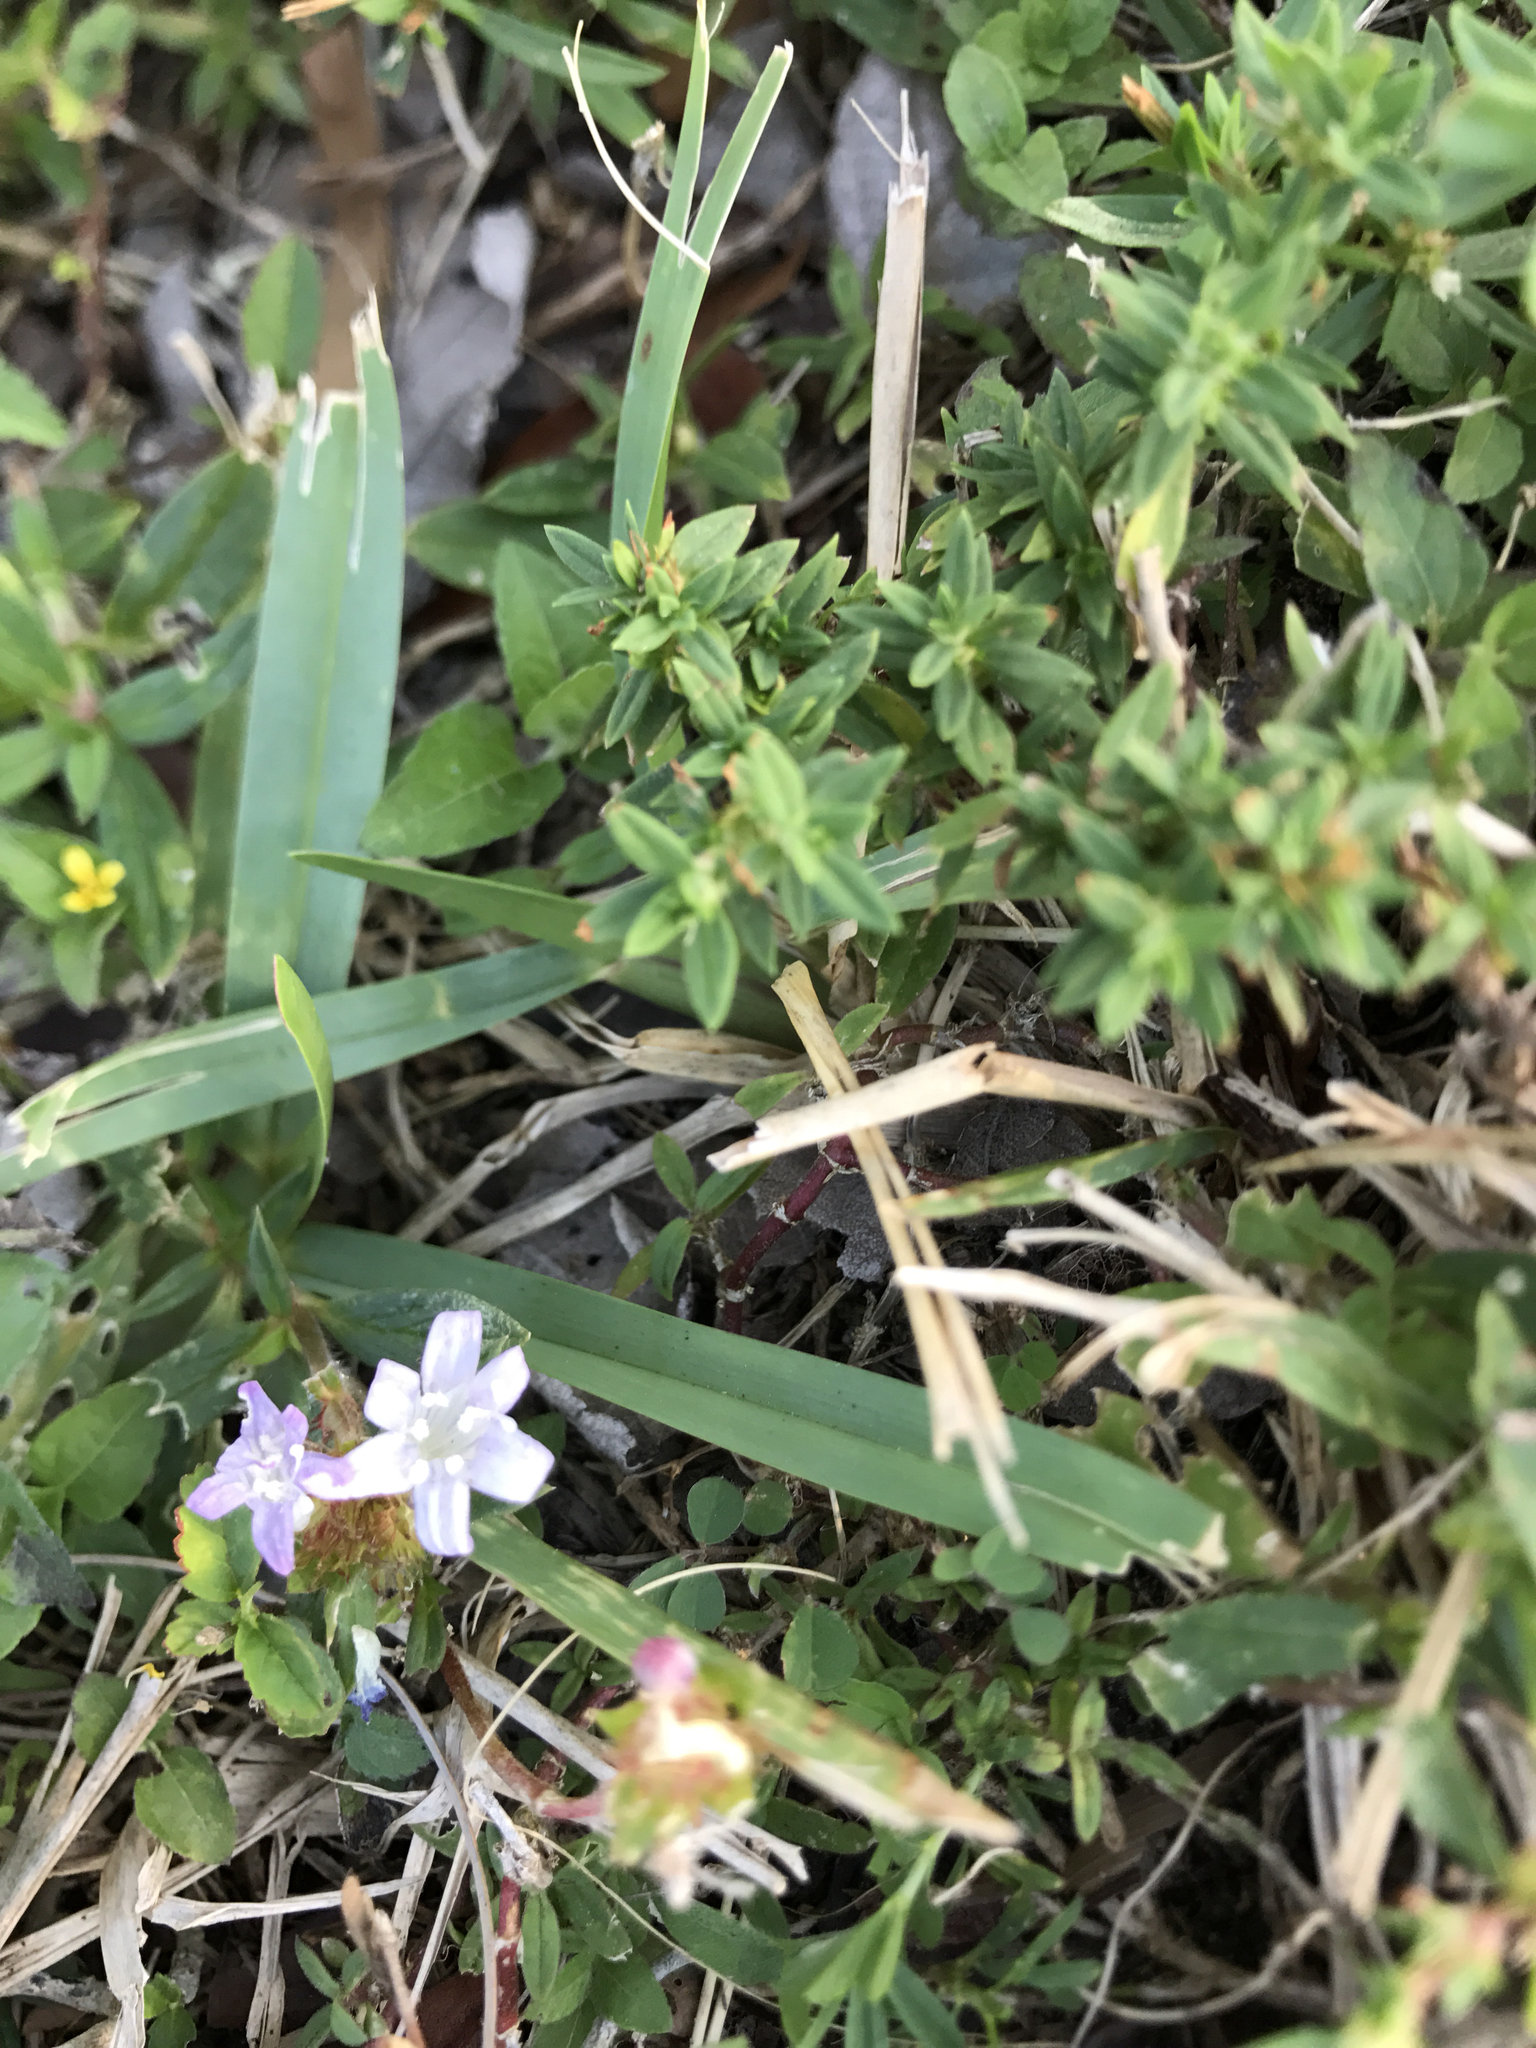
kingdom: Plantae
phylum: Tracheophyta
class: Magnoliopsida
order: Gentianales
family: Rubiaceae
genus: Richardia
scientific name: Richardia grandiflora
